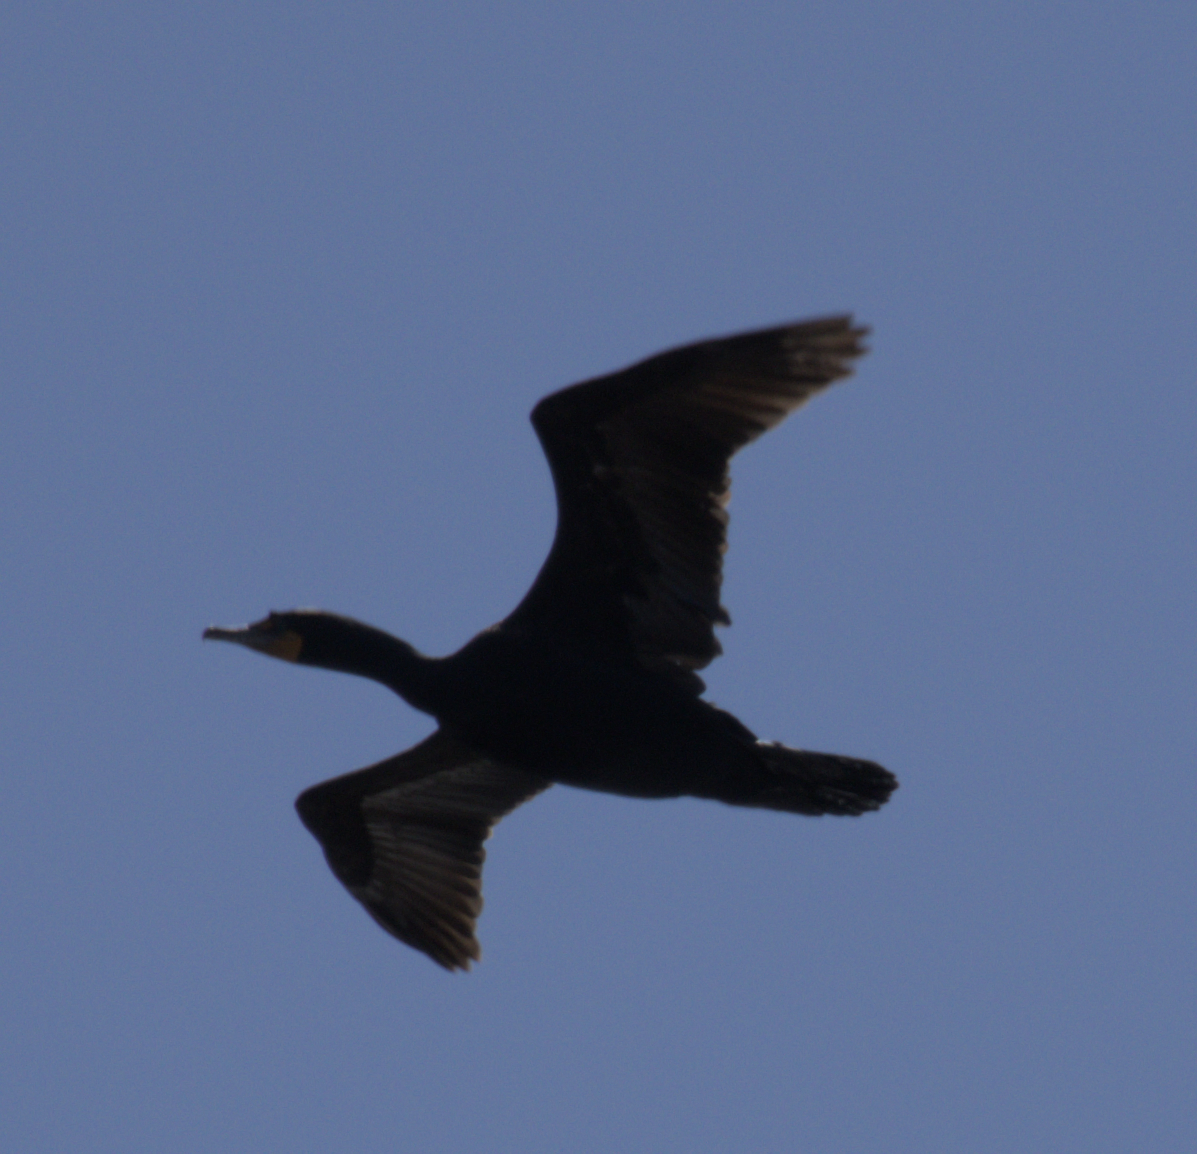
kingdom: Animalia
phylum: Chordata
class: Aves
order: Suliformes
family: Phalacrocoracidae
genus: Phalacrocorax
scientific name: Phalacrocorax auritus
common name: Double-crested cormorant
